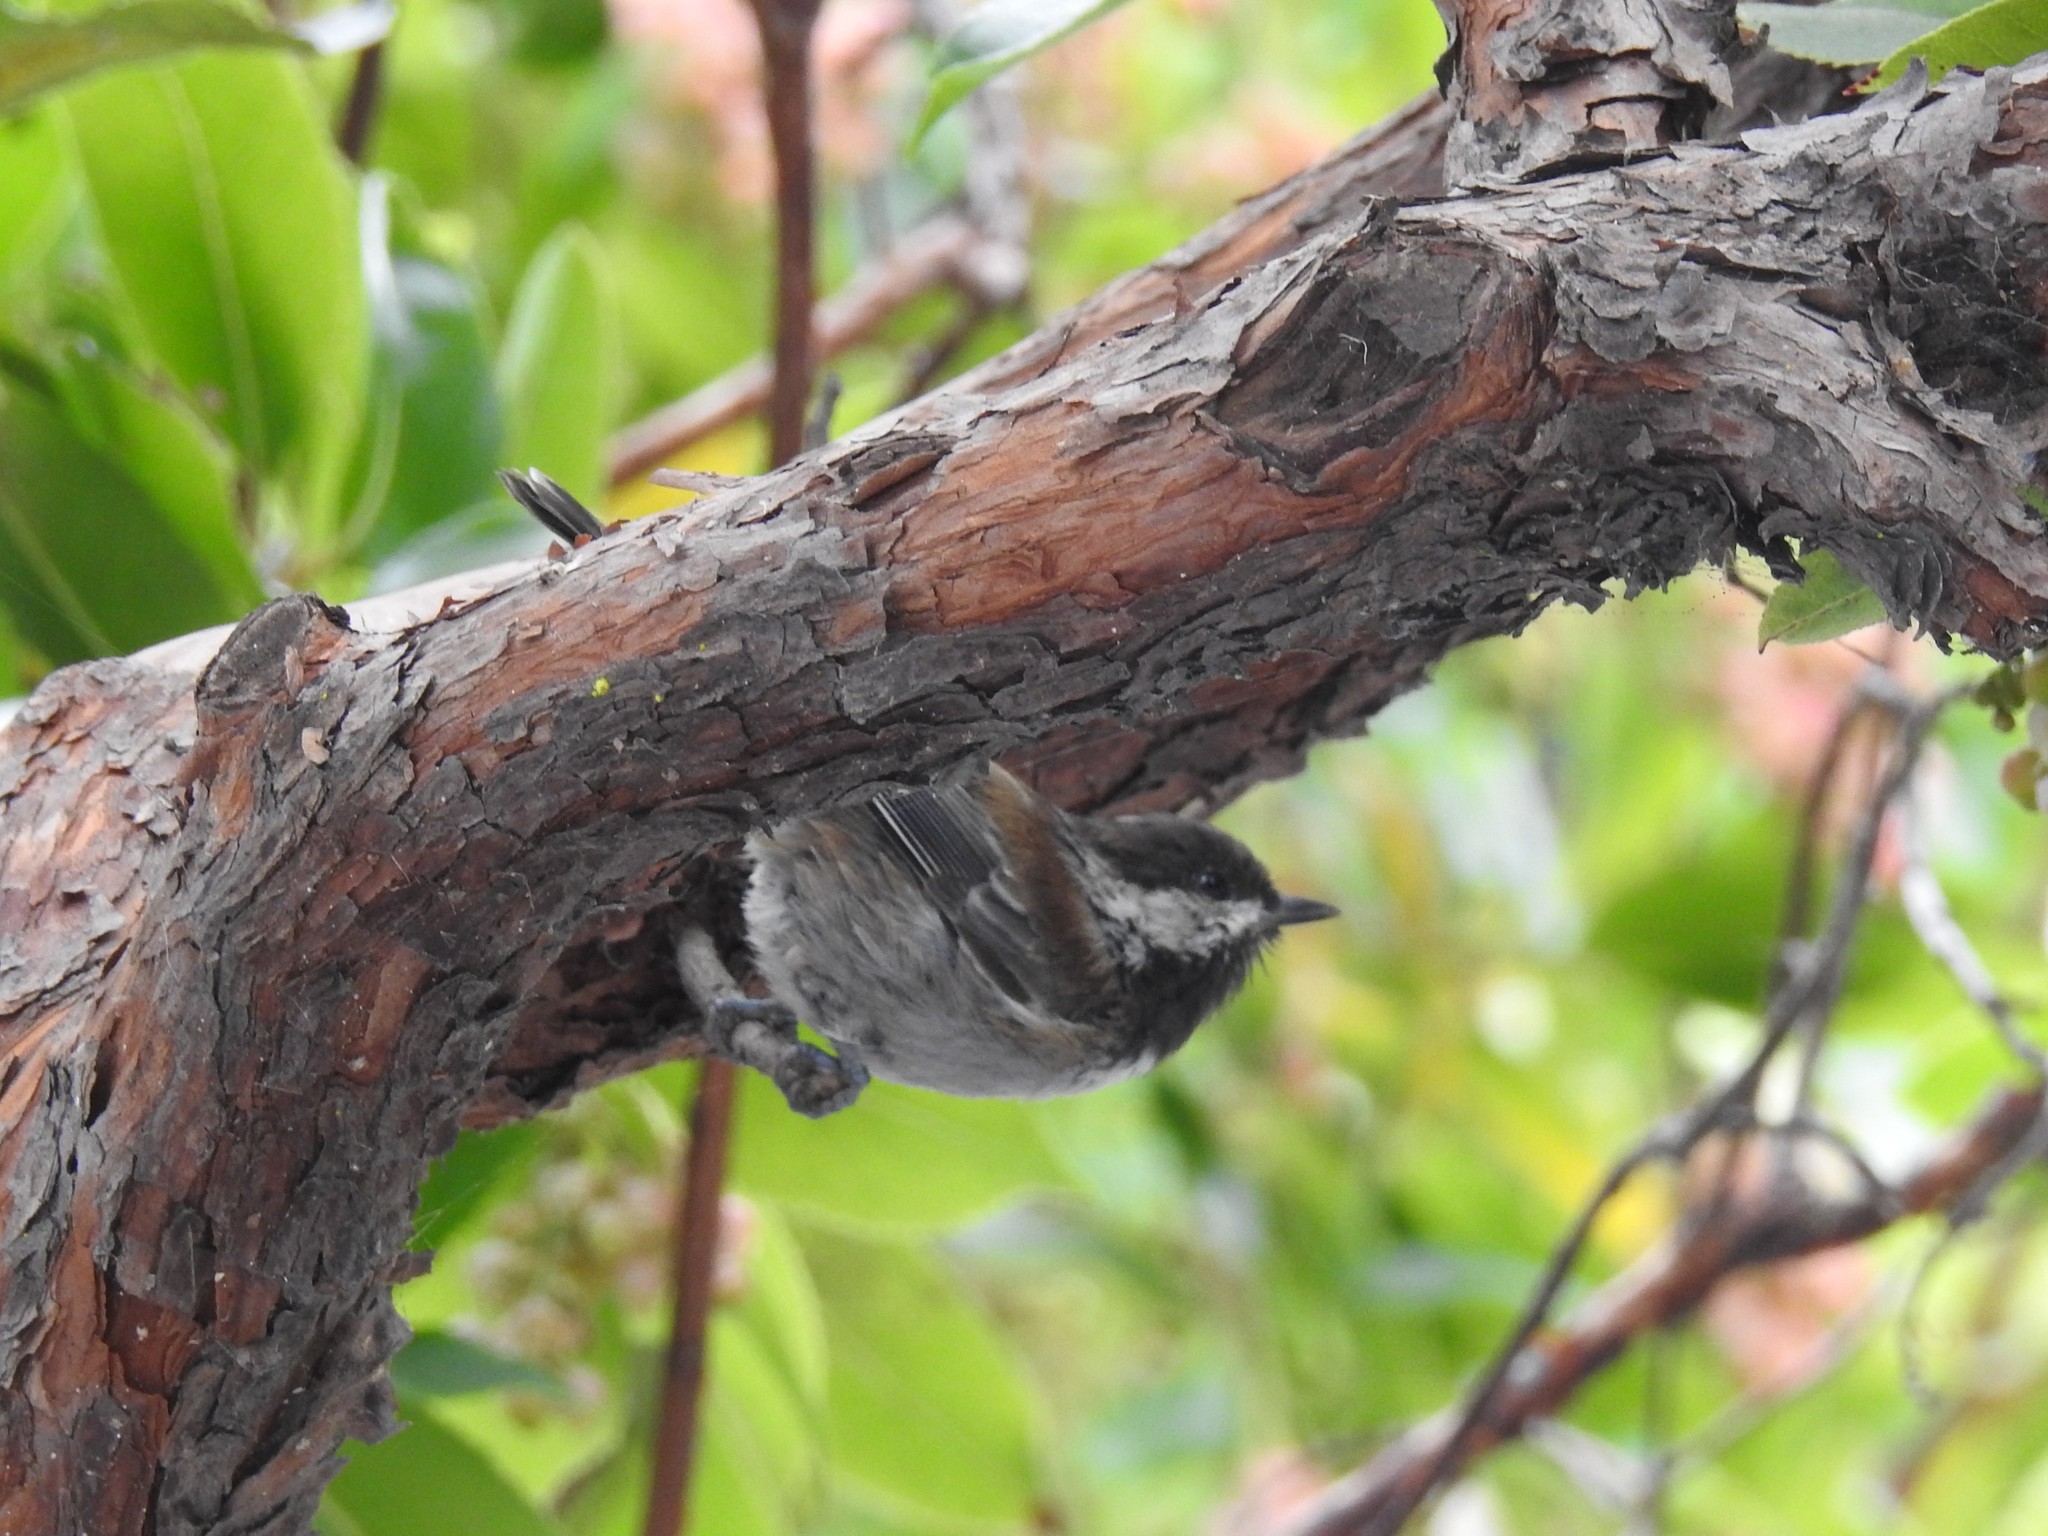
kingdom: Animalia
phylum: Chordata
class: Aves
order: Passeriformes
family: Paridae
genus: Poecile
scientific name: Poecile rufescens
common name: Chestnut-backed chickadee
